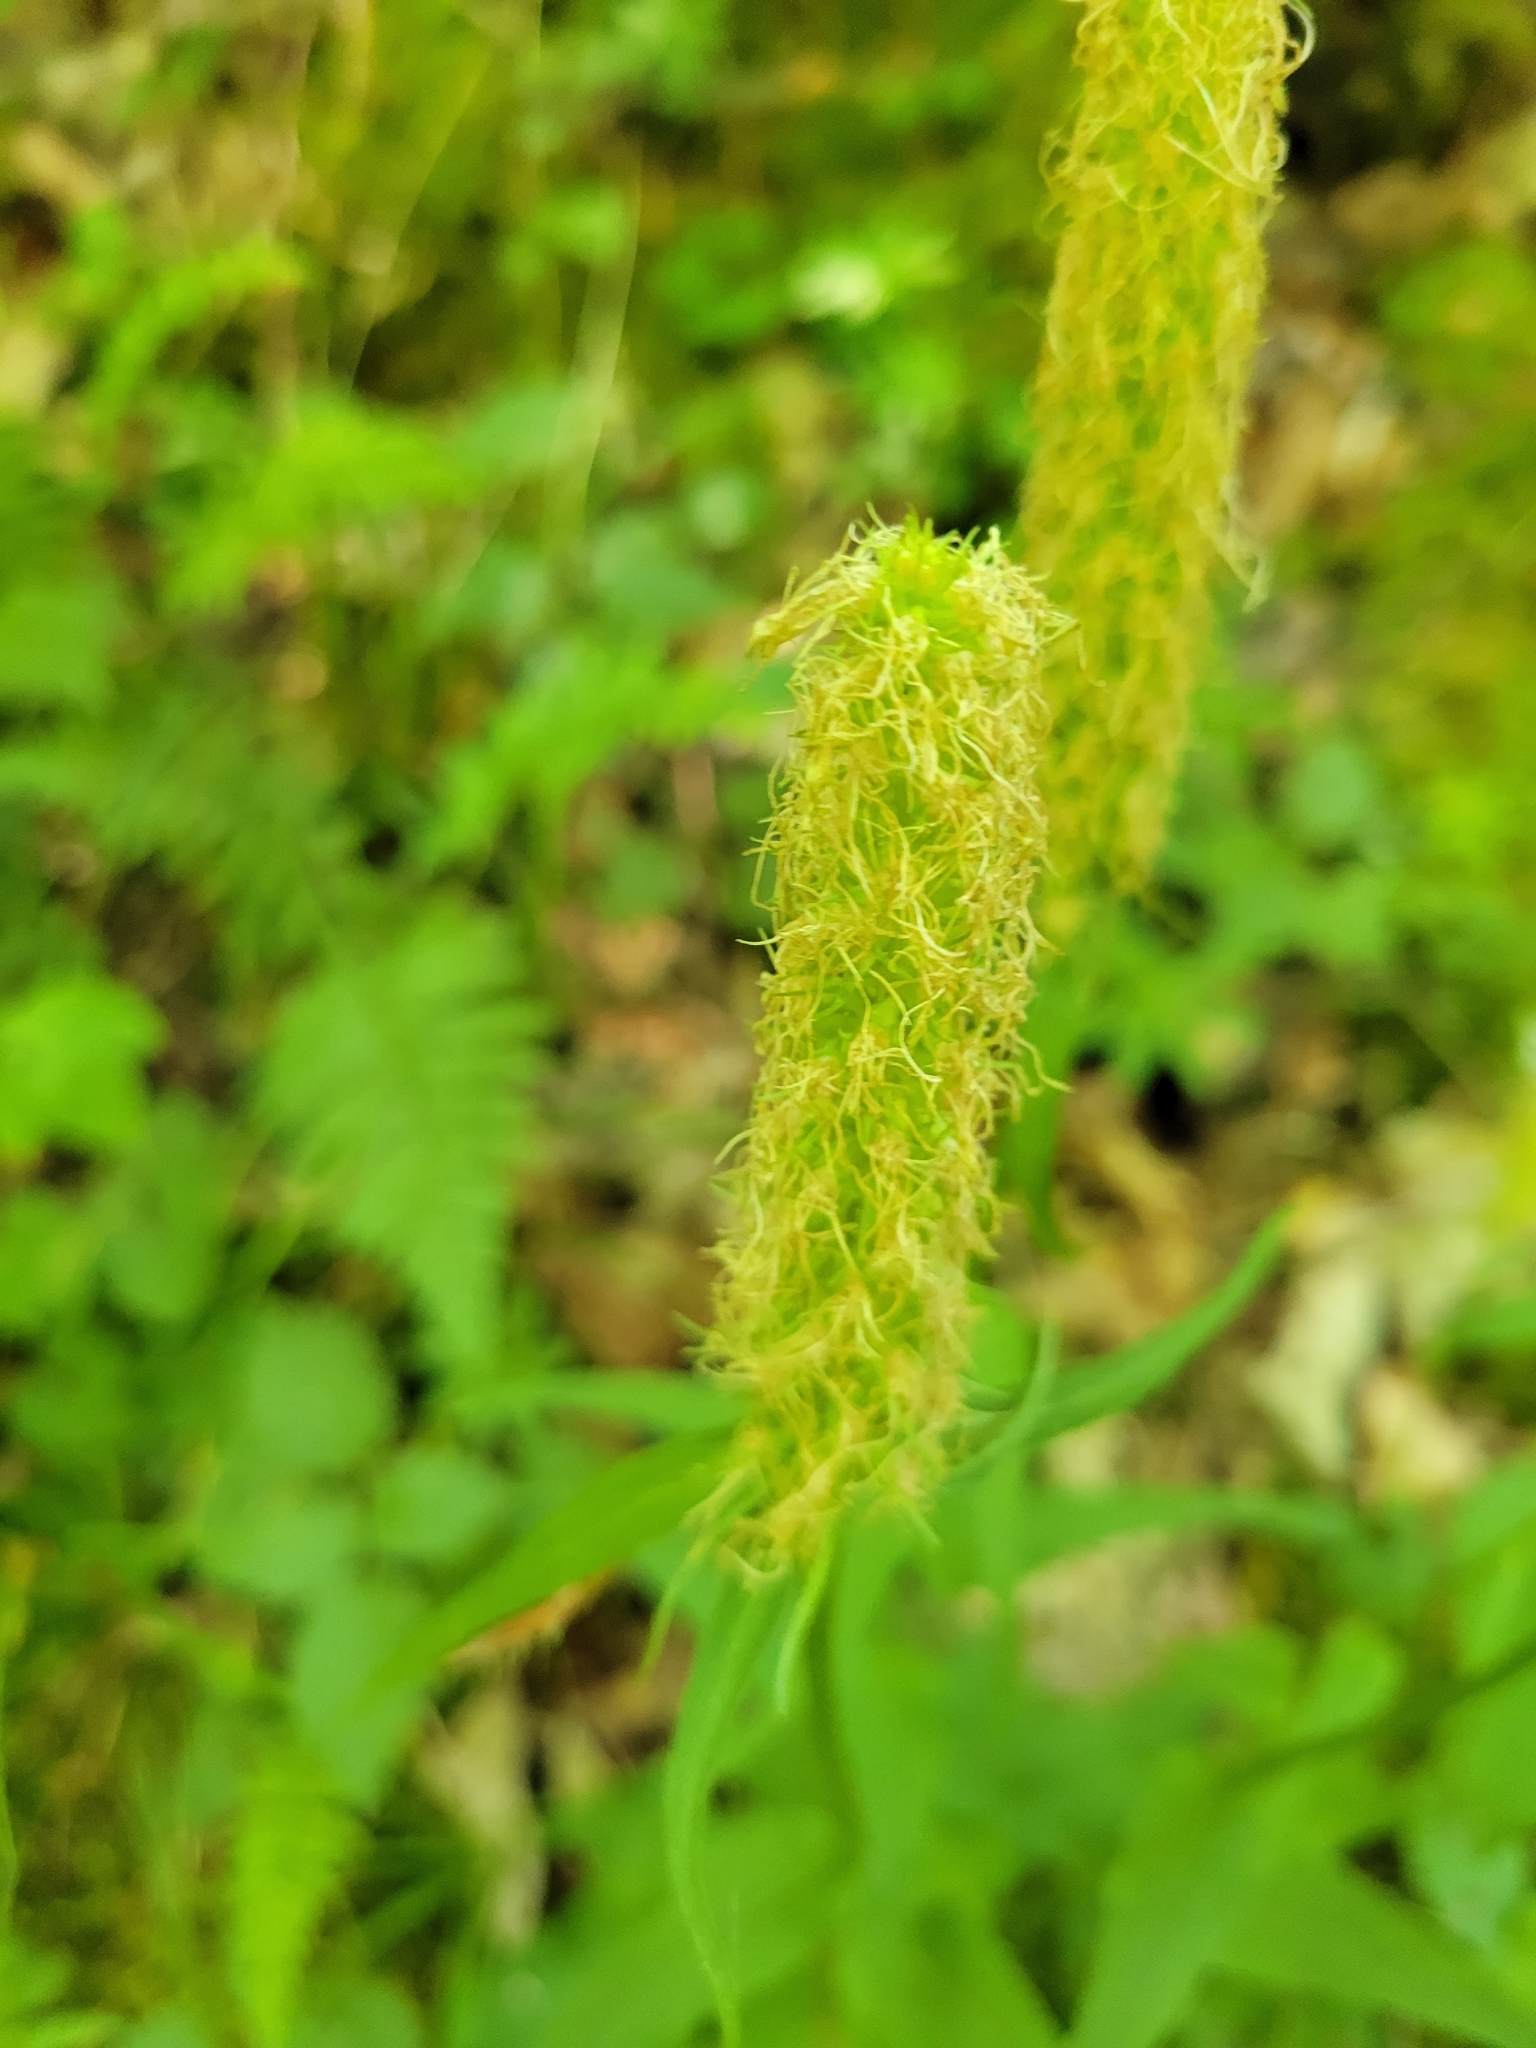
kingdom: Plantae
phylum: Tracheophyta
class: Magnoliopsida
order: Asterales
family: Campanulaceae
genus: Phyteuma
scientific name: Phyteuma spicatum
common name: Spiked rampion
